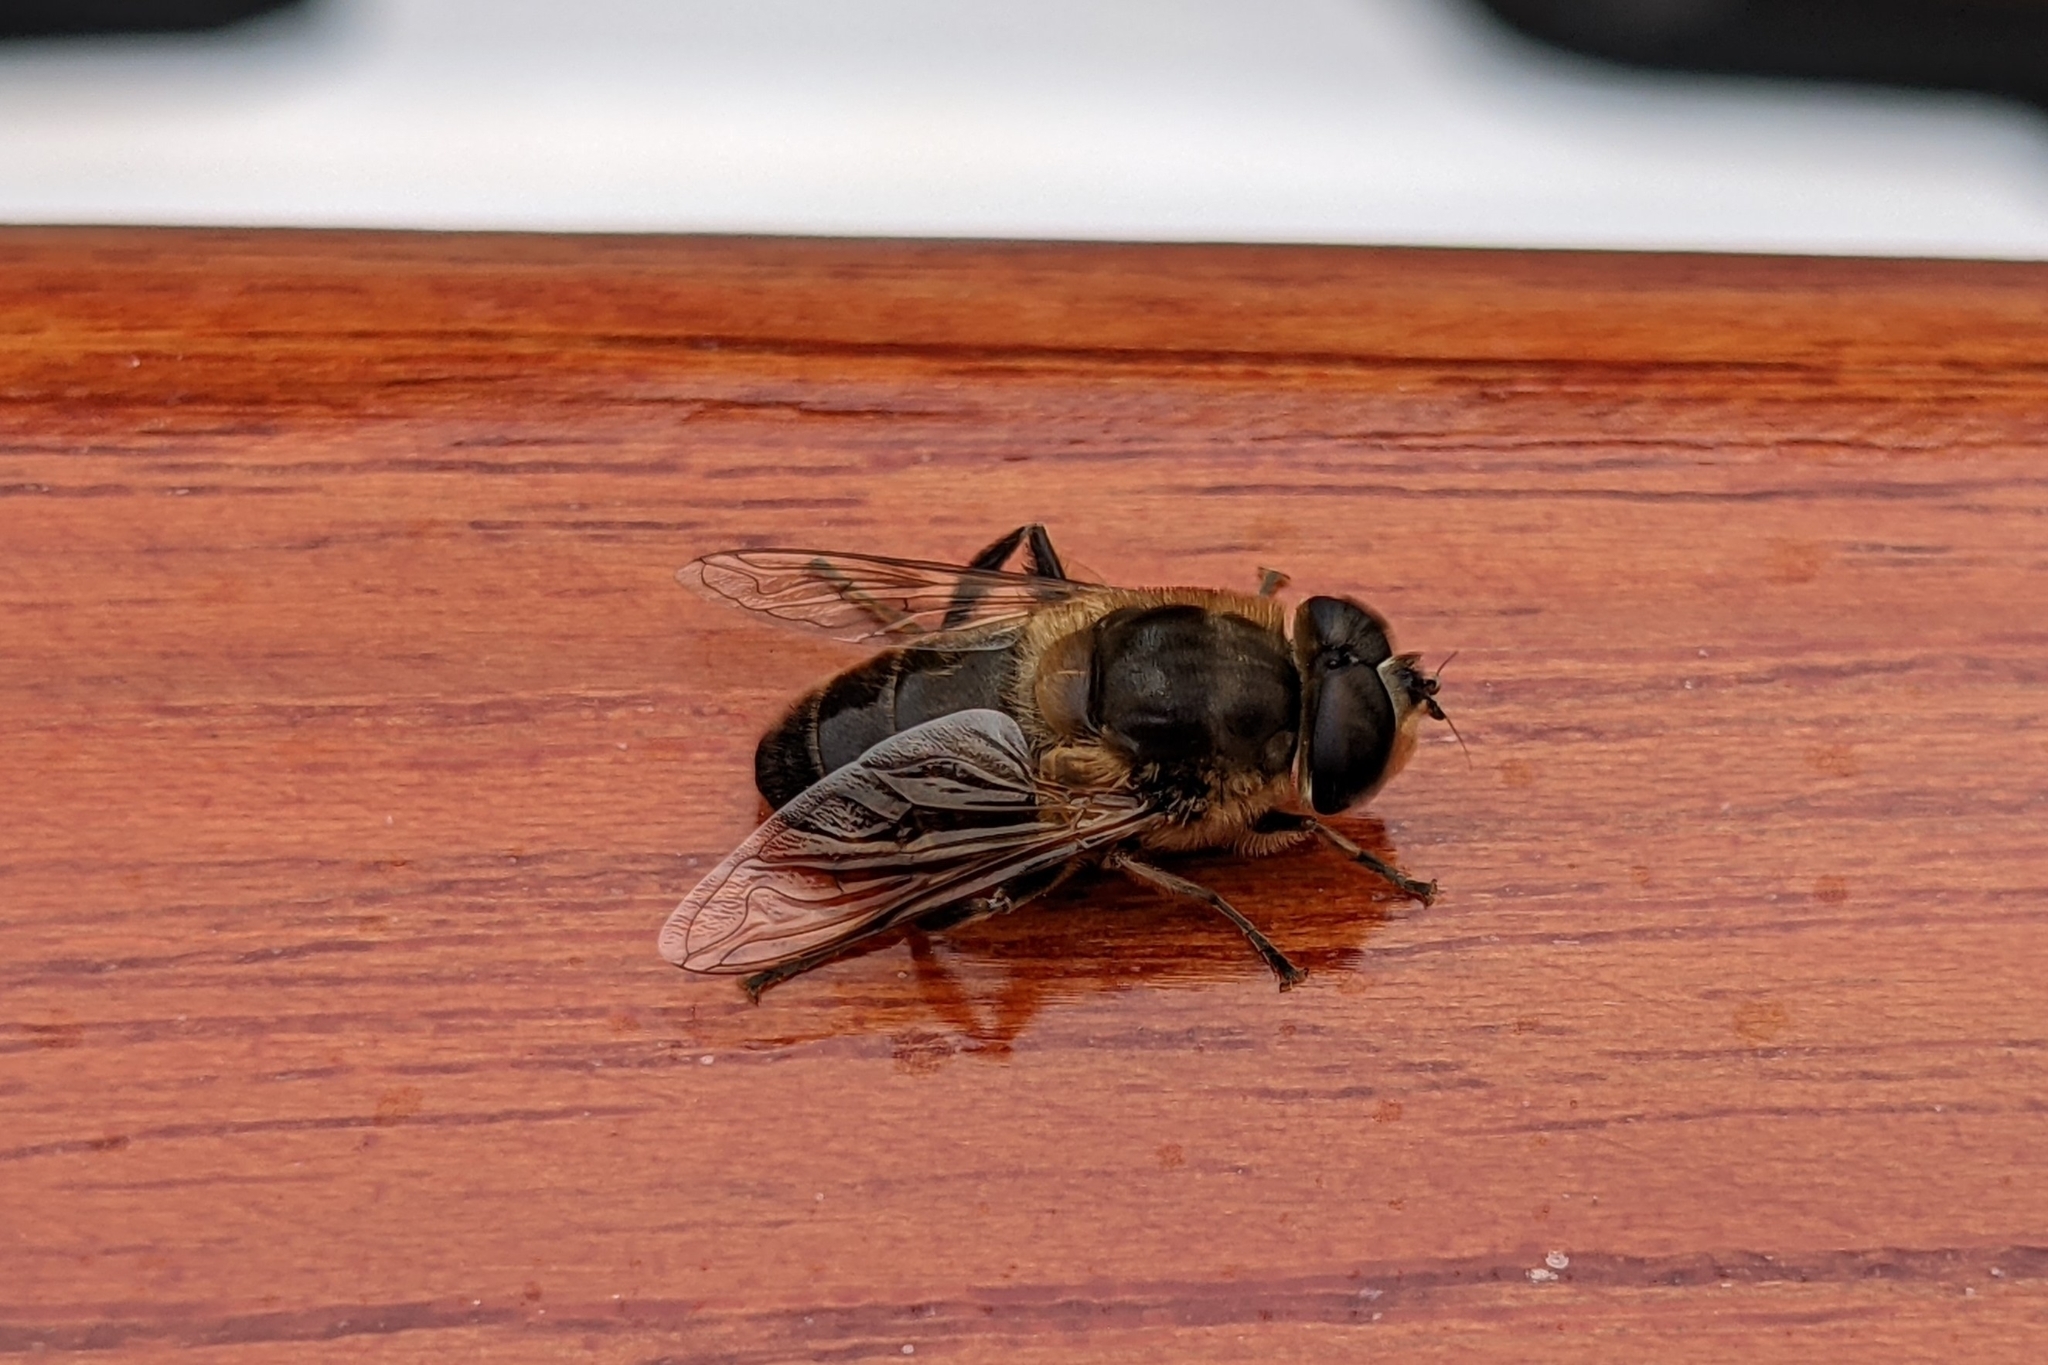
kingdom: Animalia
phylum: Arthropoda
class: Insecta
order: Diptera
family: Syrphidae
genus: Eristalis
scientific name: Eristalis tenax
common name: Drone fly
